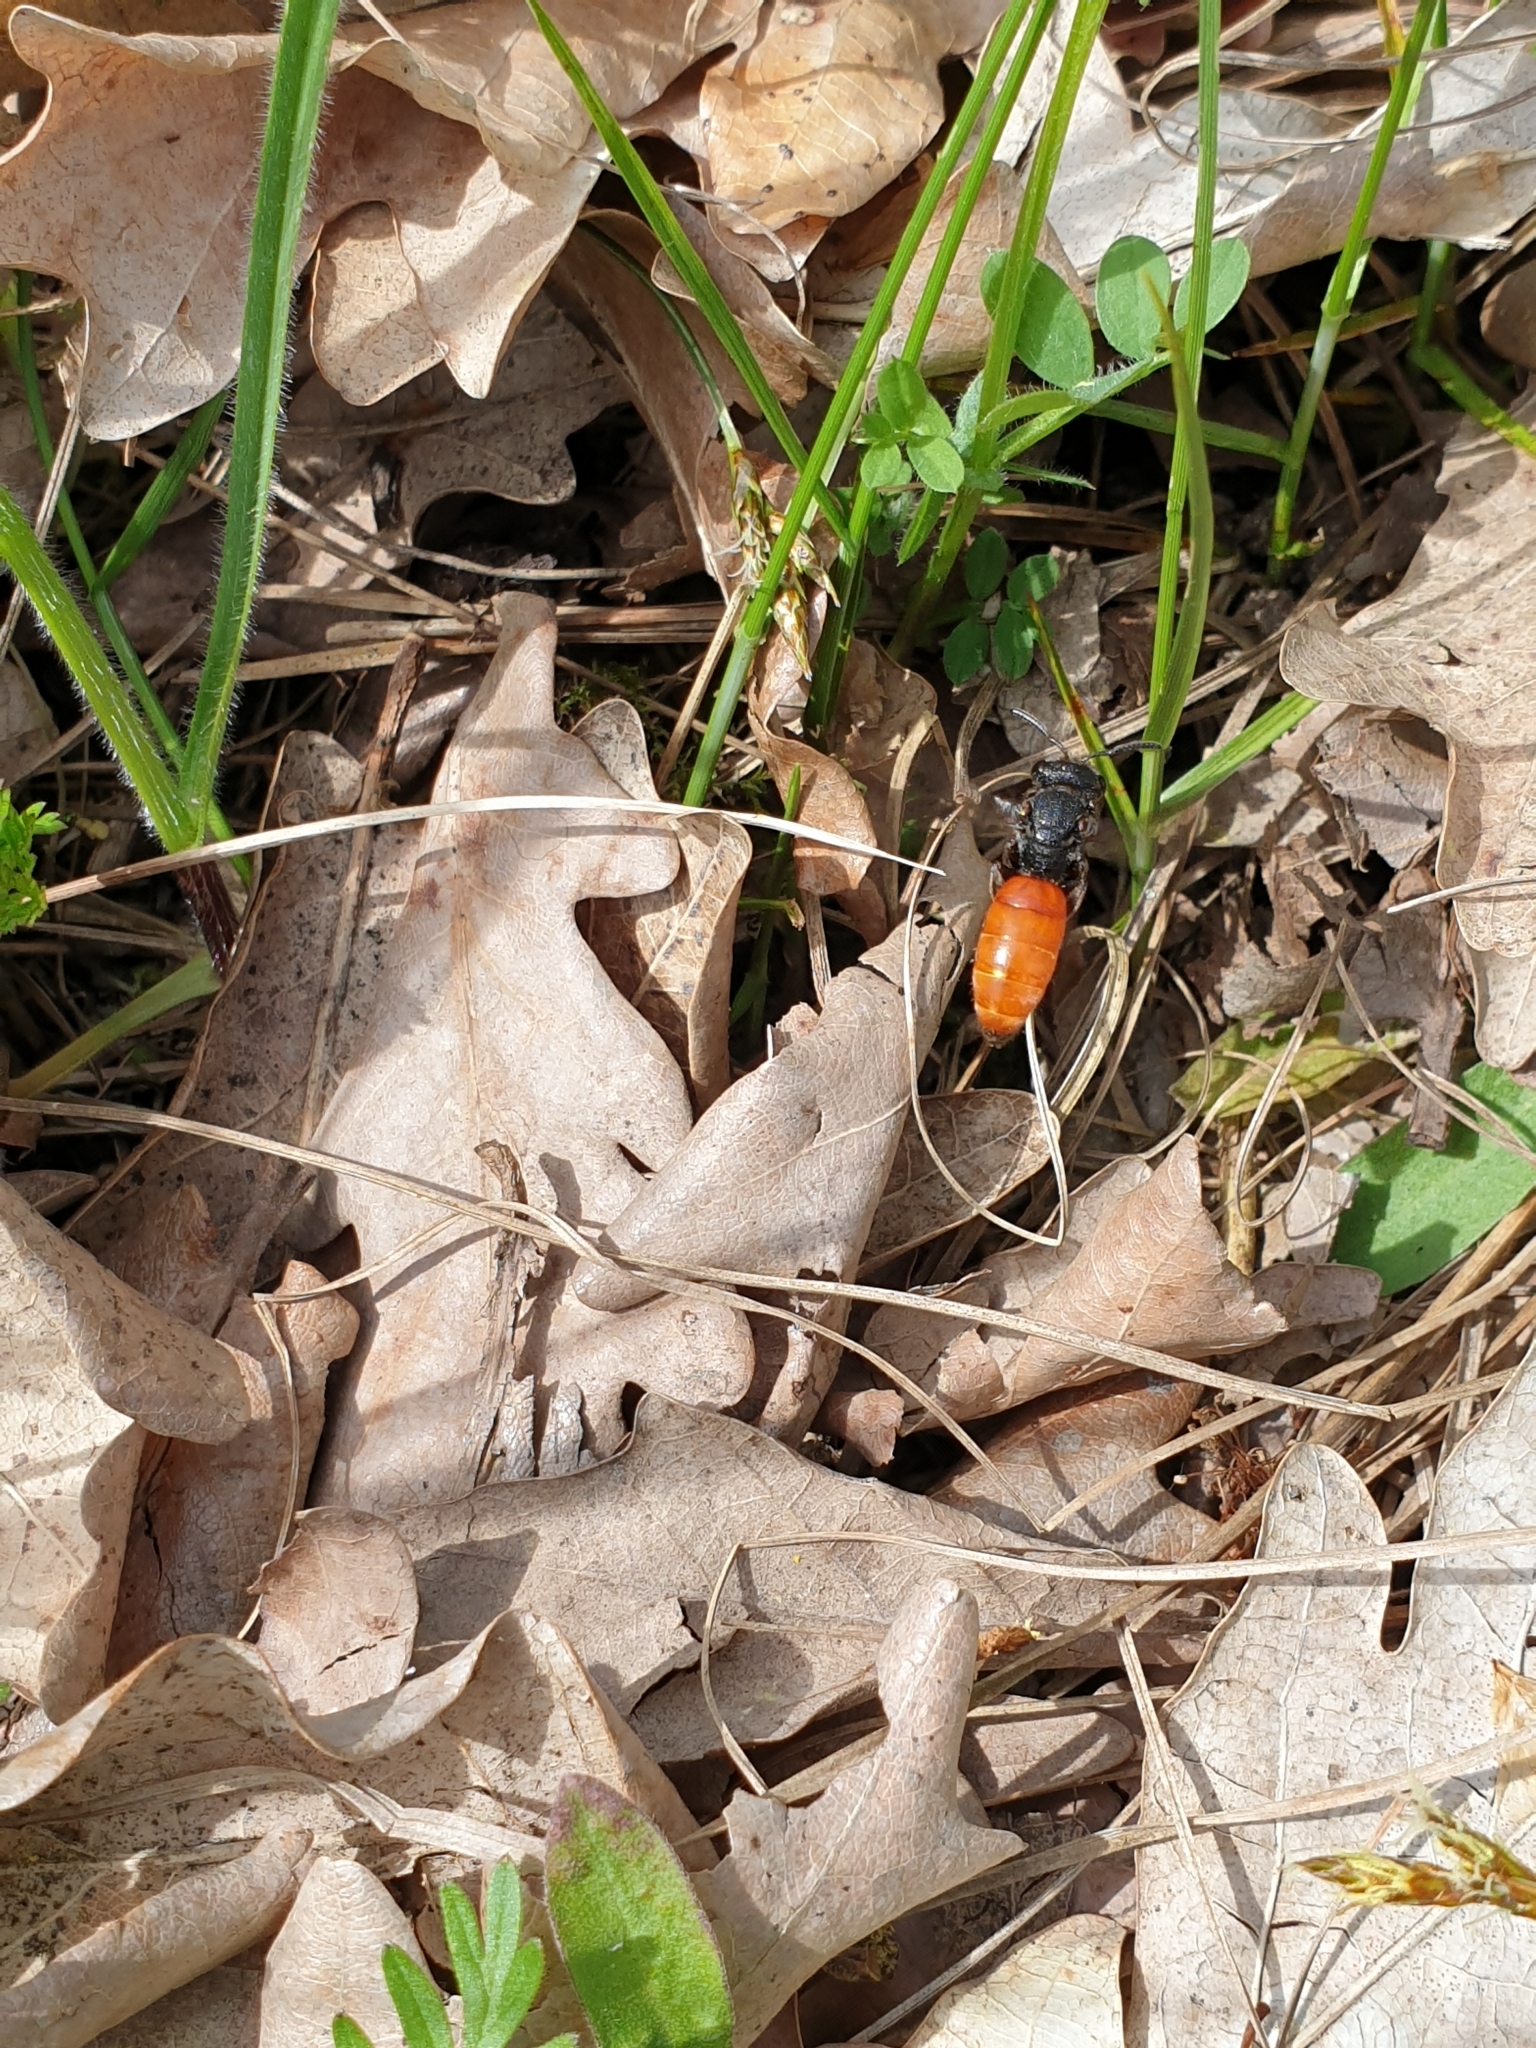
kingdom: Animalia
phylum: Arthropoda
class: Insecta
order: Hymenoptera
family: Halictidae
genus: Sphecodes
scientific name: Sphecodes albilabris
